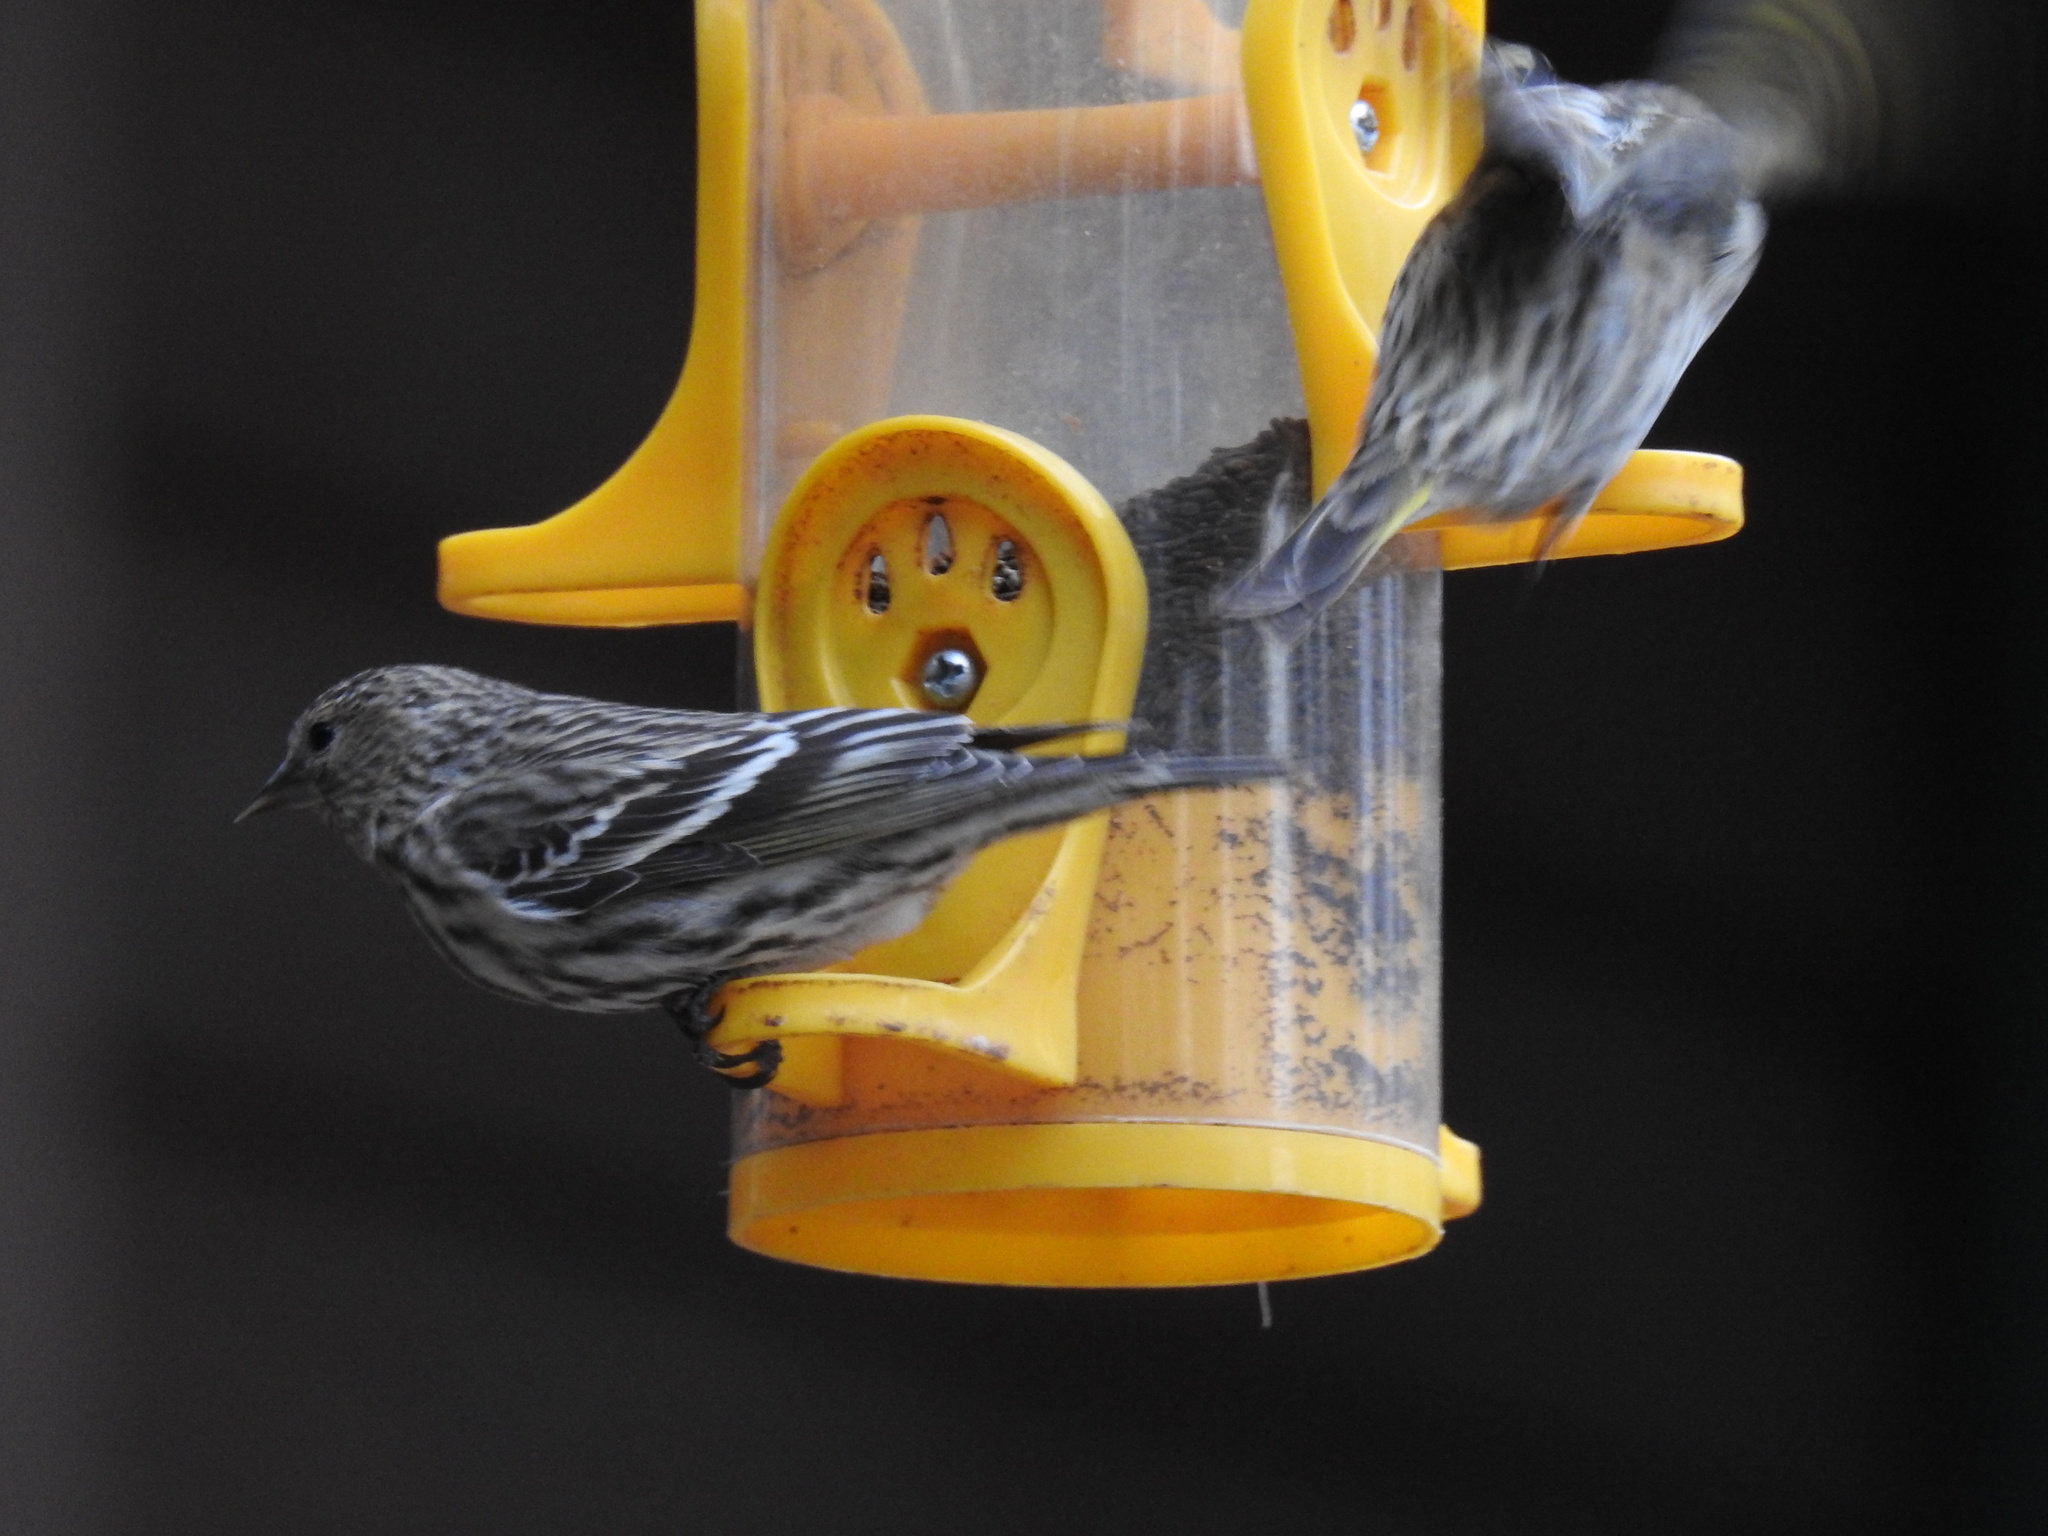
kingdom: Animalia
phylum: Chordata
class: Aves
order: Passeriformes
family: Fringillidae
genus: Spinus
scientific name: Spinus pinus
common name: Pine siskin
